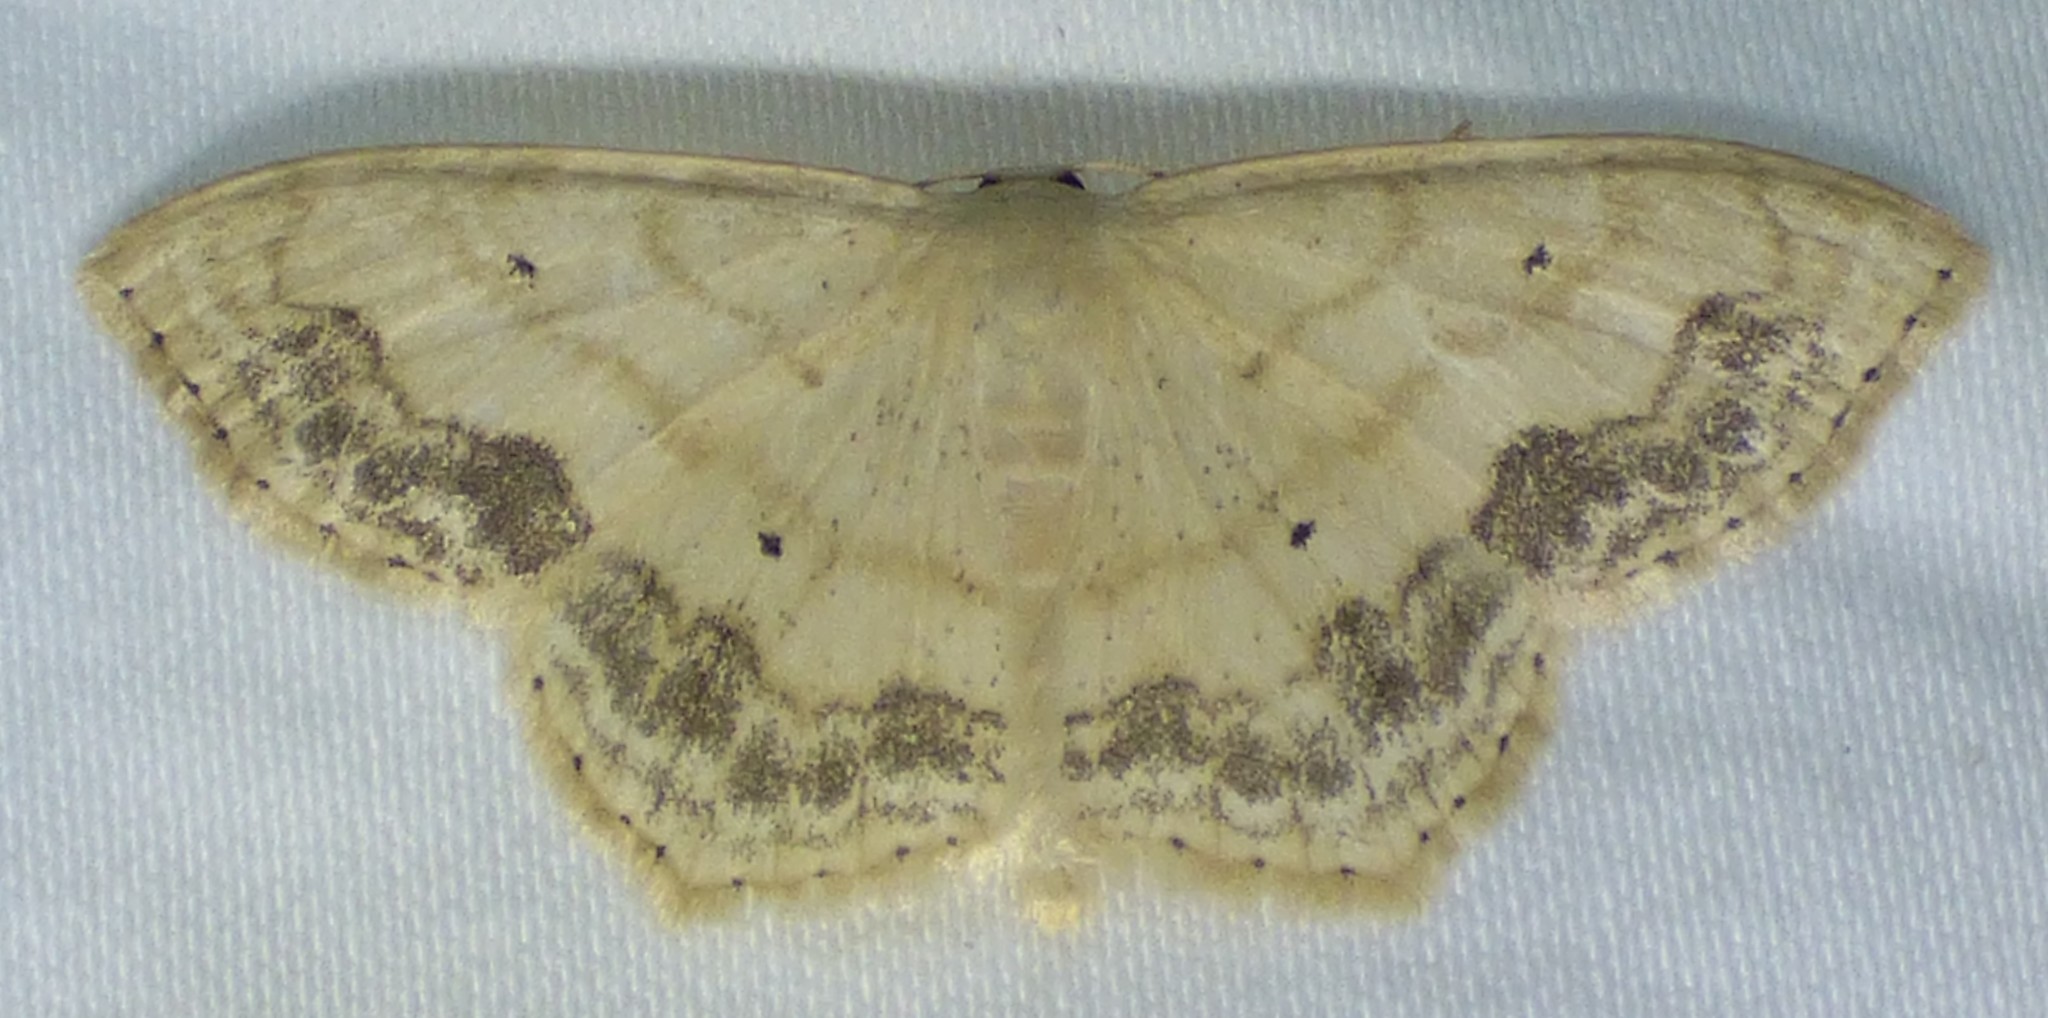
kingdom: Animalia
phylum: Arthropoda
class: Insecta
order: Lepidoptera
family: Geometridae
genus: Scopula
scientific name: Scopula limboundata
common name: Large lace border
